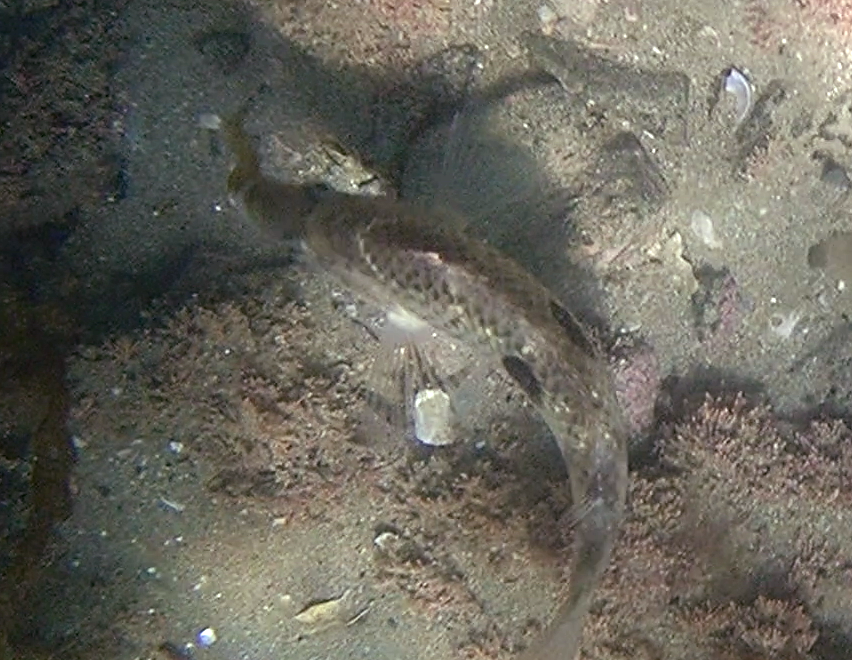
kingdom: Animalia
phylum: Chordata
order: Perciformes
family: Labridae
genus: Notolabrus
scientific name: Notolabrus celidotus
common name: Spotty
